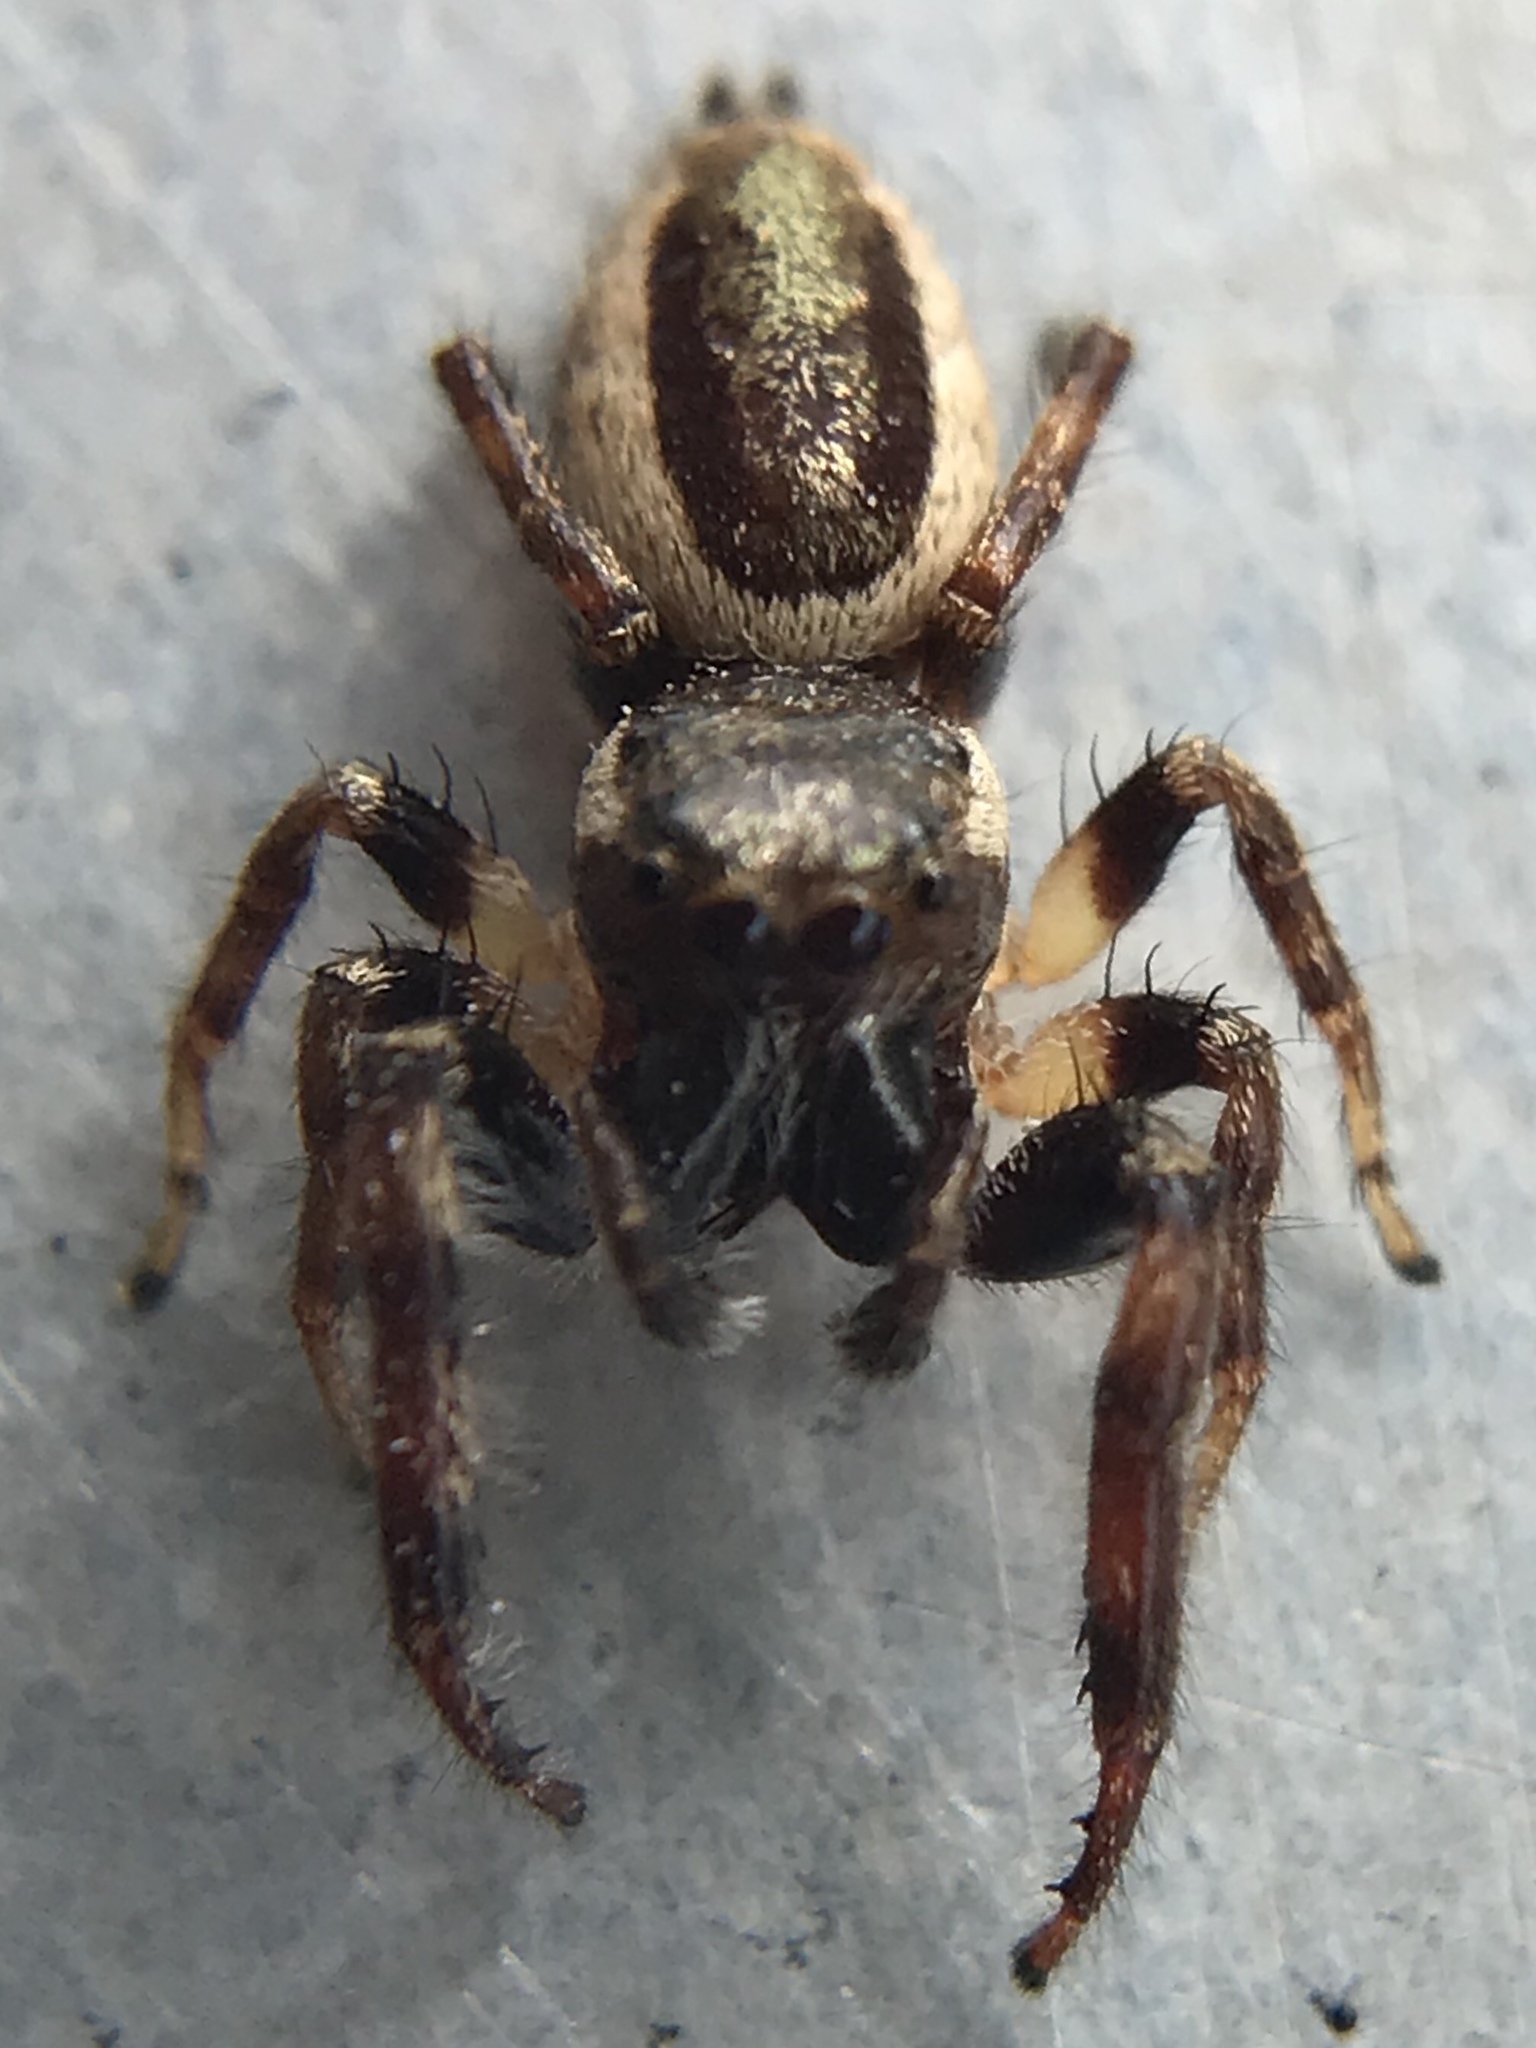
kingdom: Animalia
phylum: Arthropoda
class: Arachnida
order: Araneae
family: Salticidae
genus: Eris
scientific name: Eris militaris
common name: Bronze jumper
